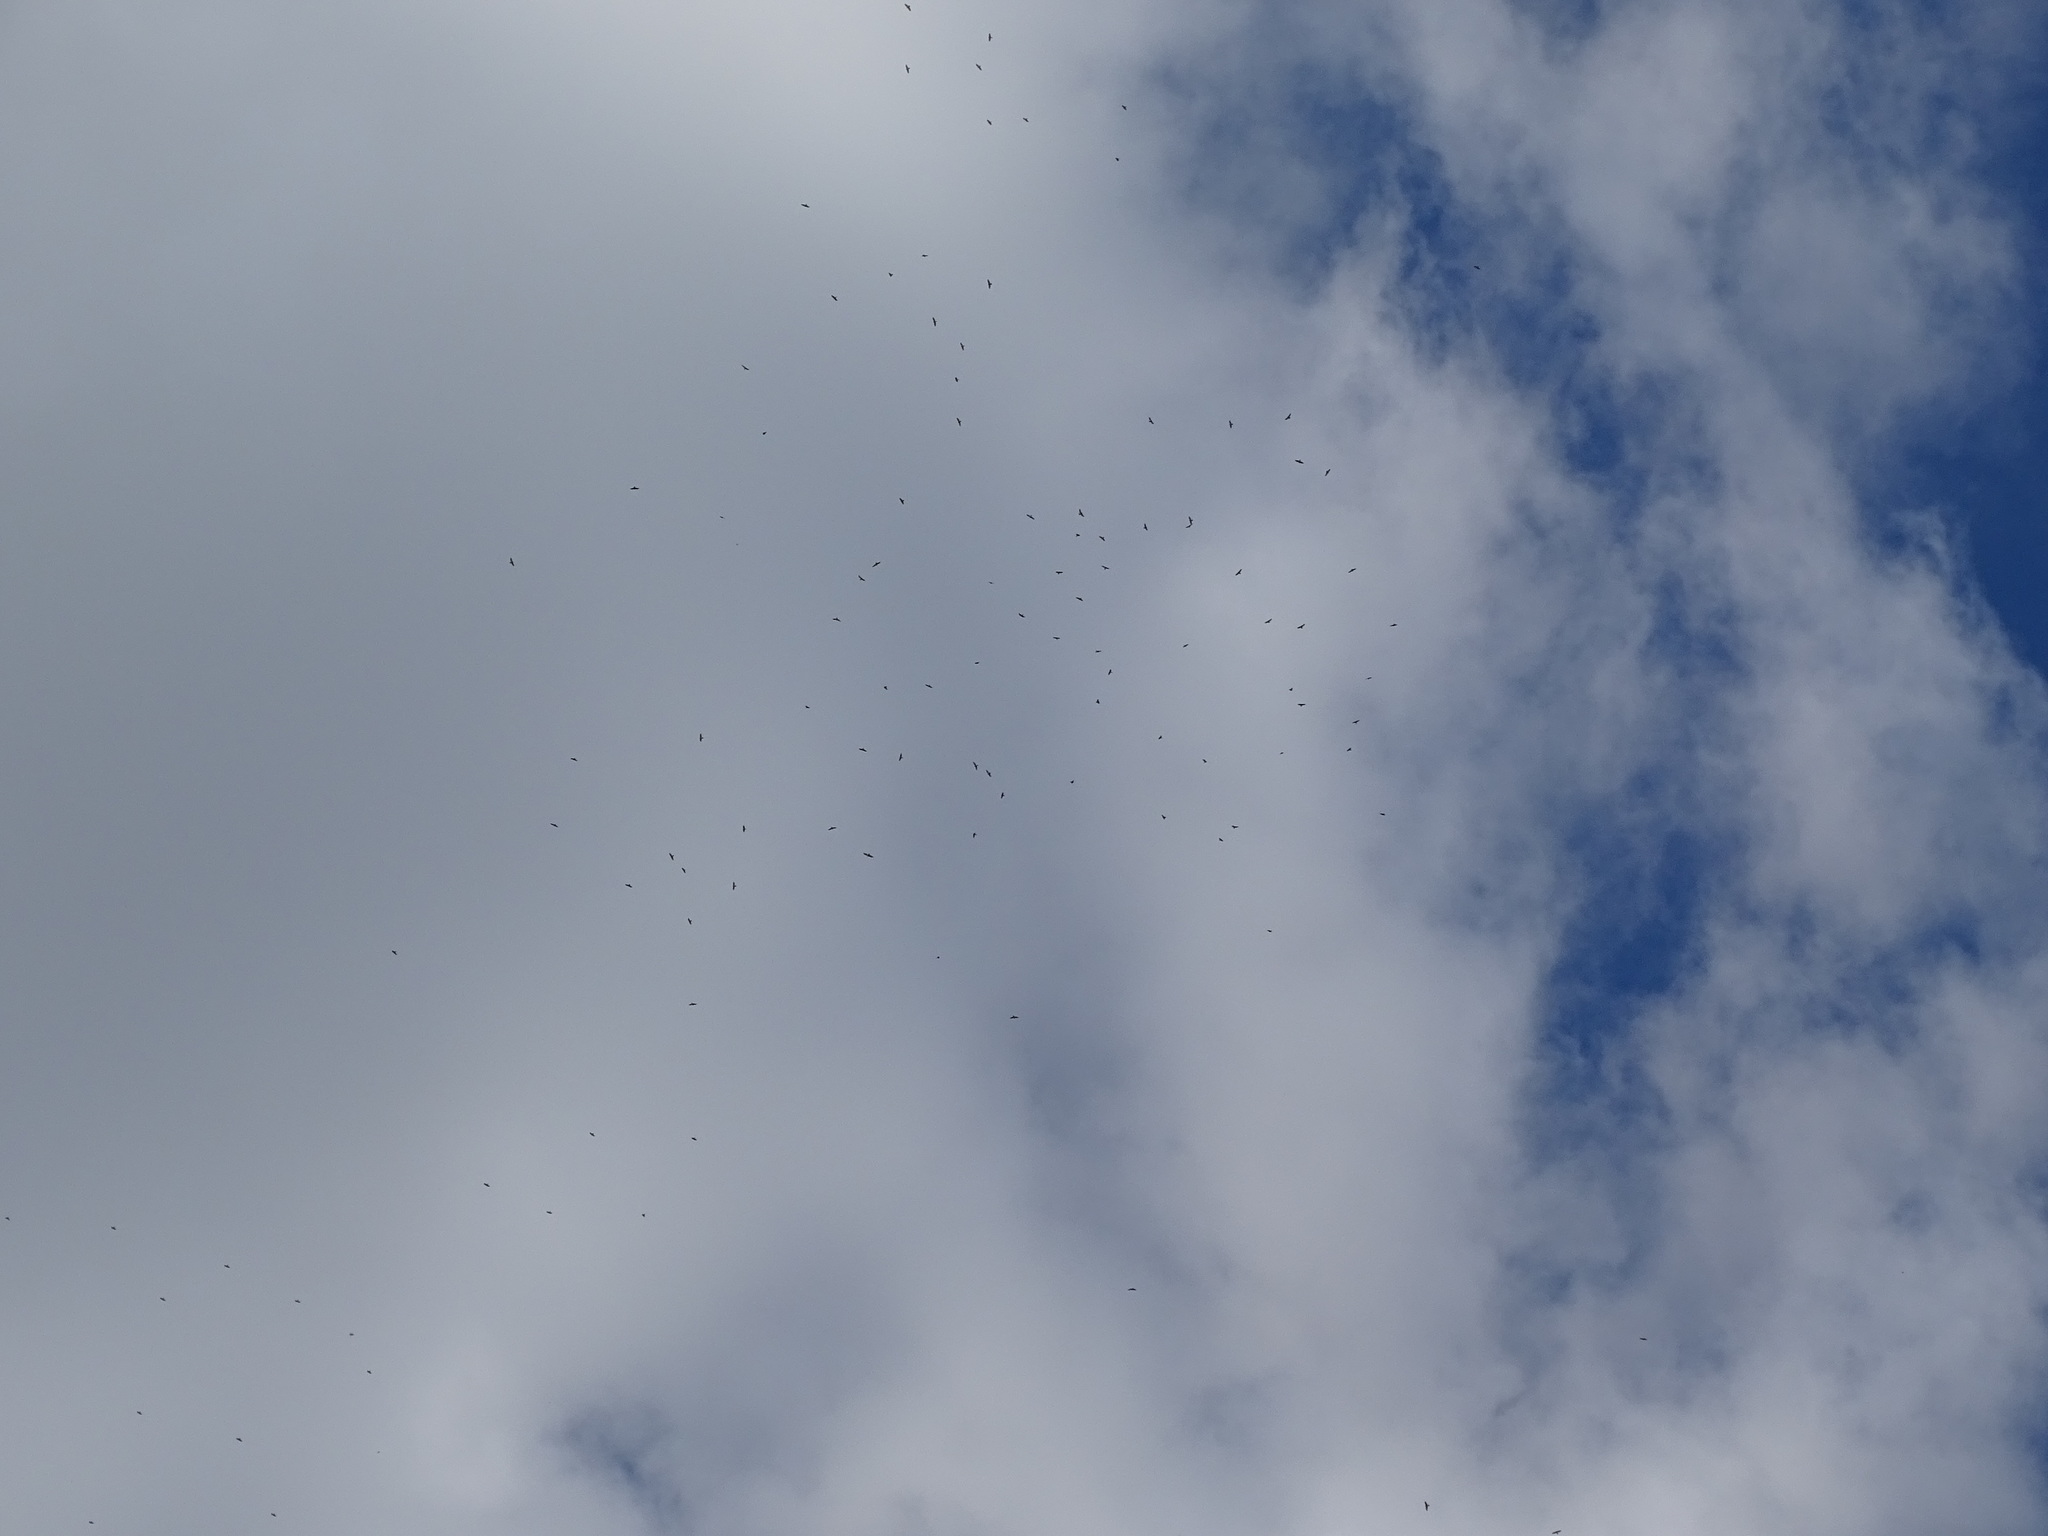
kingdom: Animalia
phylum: Chordata
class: Aves
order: Accipitriformes
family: Accipitridae
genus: Buteo
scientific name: Buteo platypterus
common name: Broad-winged hawk
